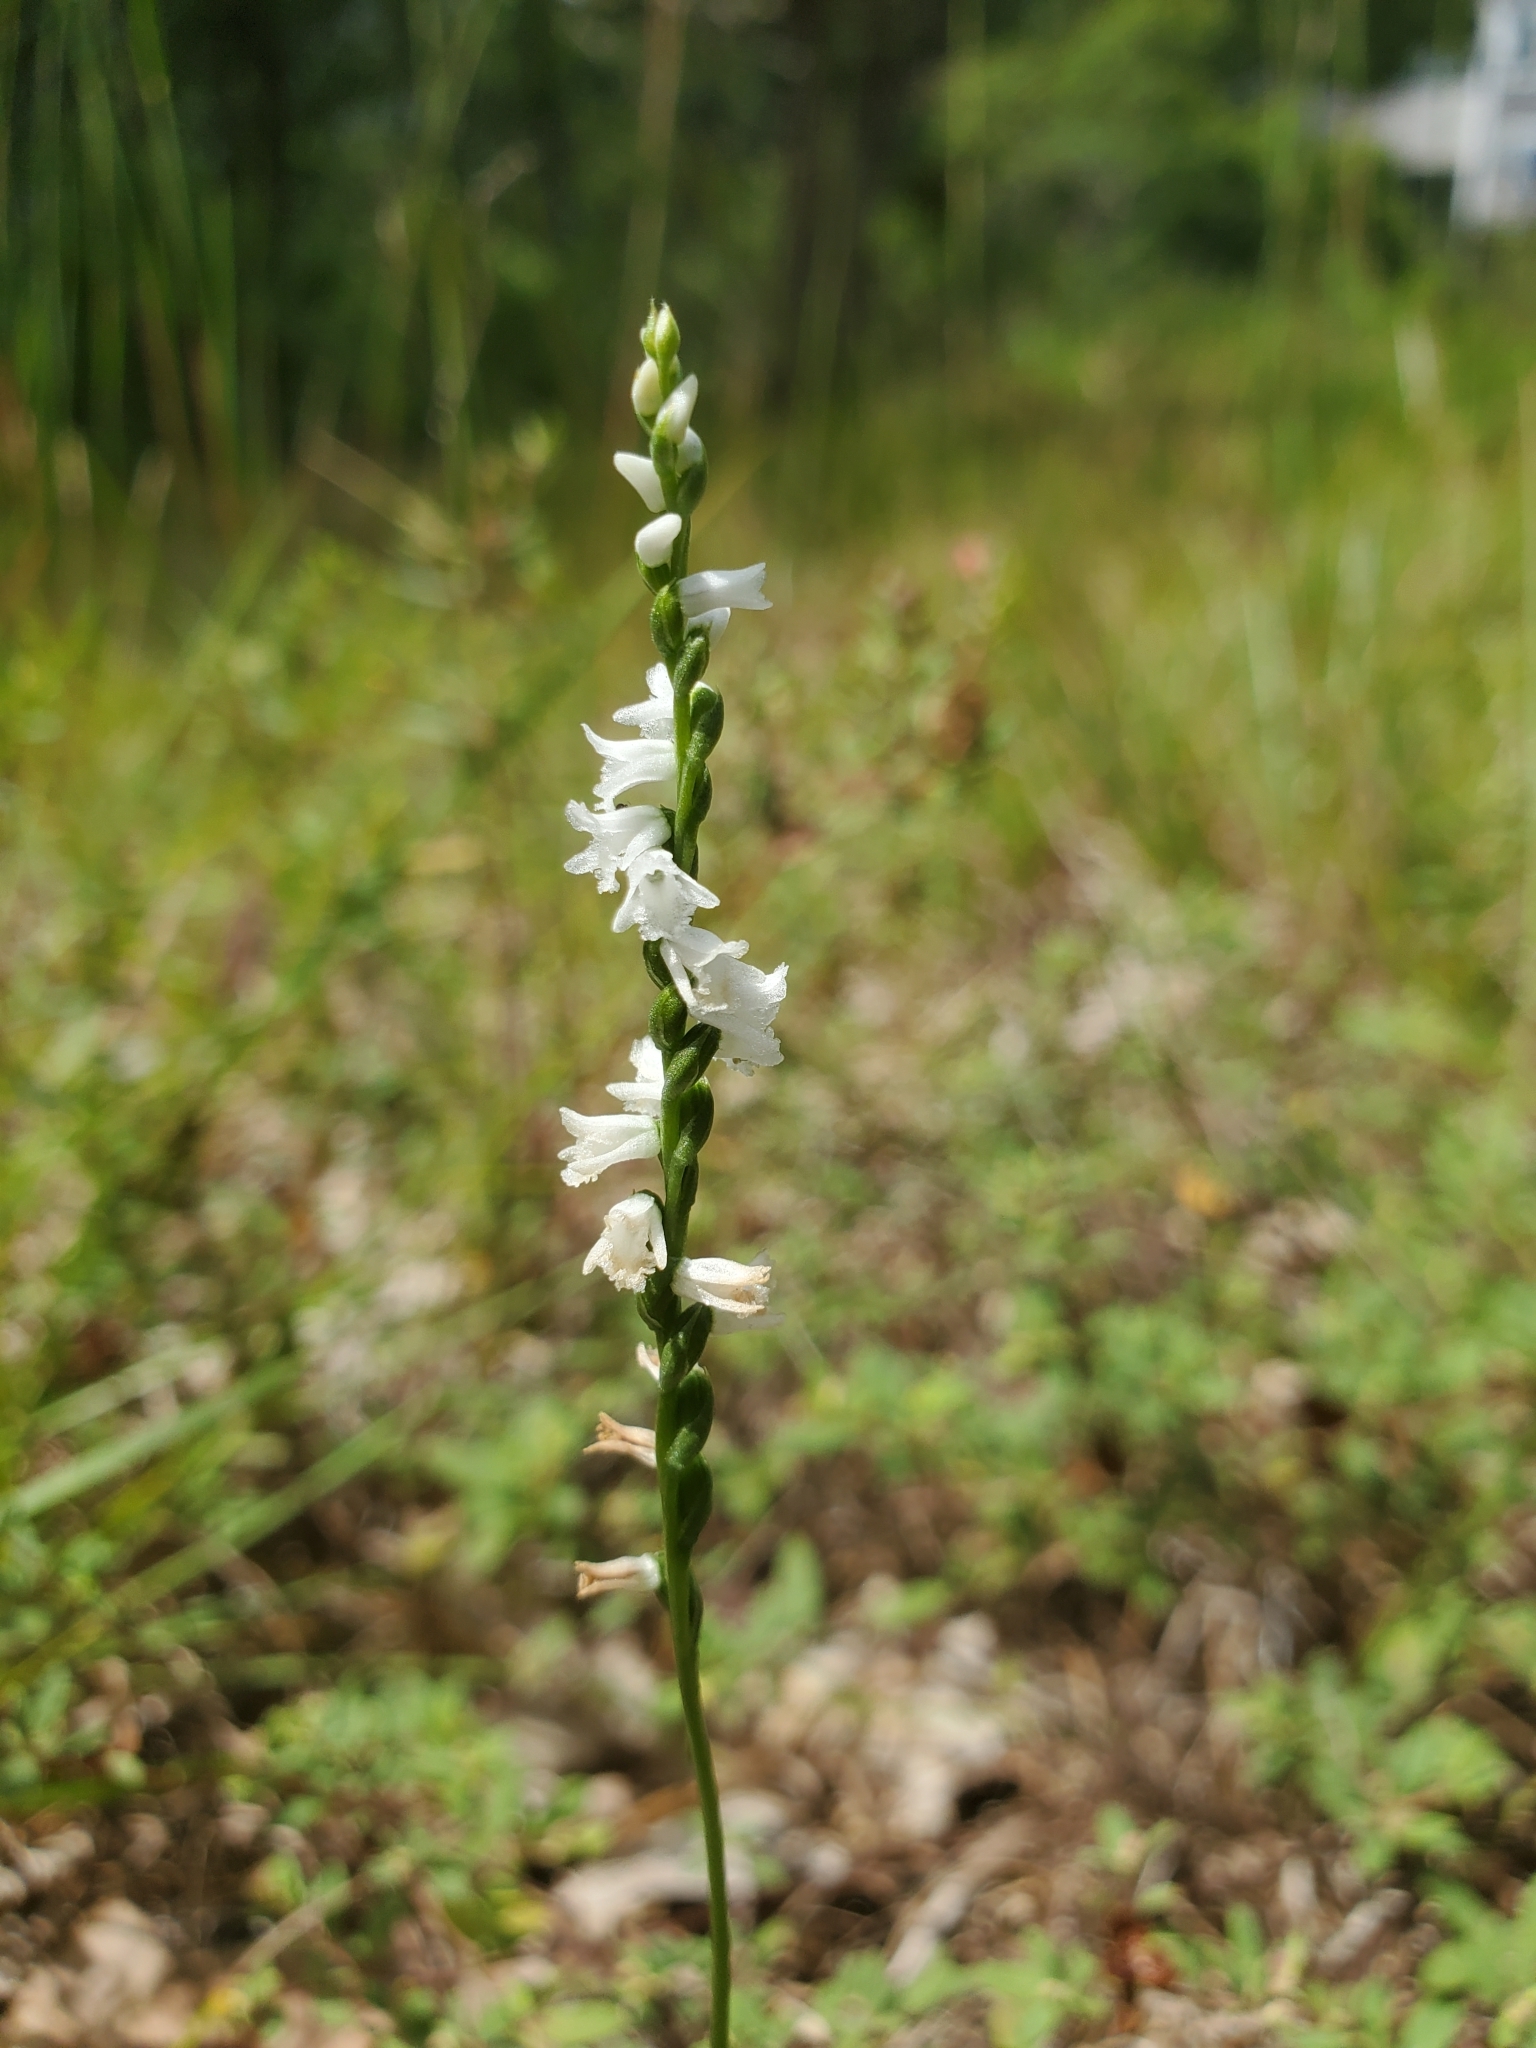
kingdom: Plantae
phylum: Tracheophyta
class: Liliopsida
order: Asparagales
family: Orchidaceae
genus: Spiranthes
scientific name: Spiranthes tuberosa
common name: Little ladies'-tresses
